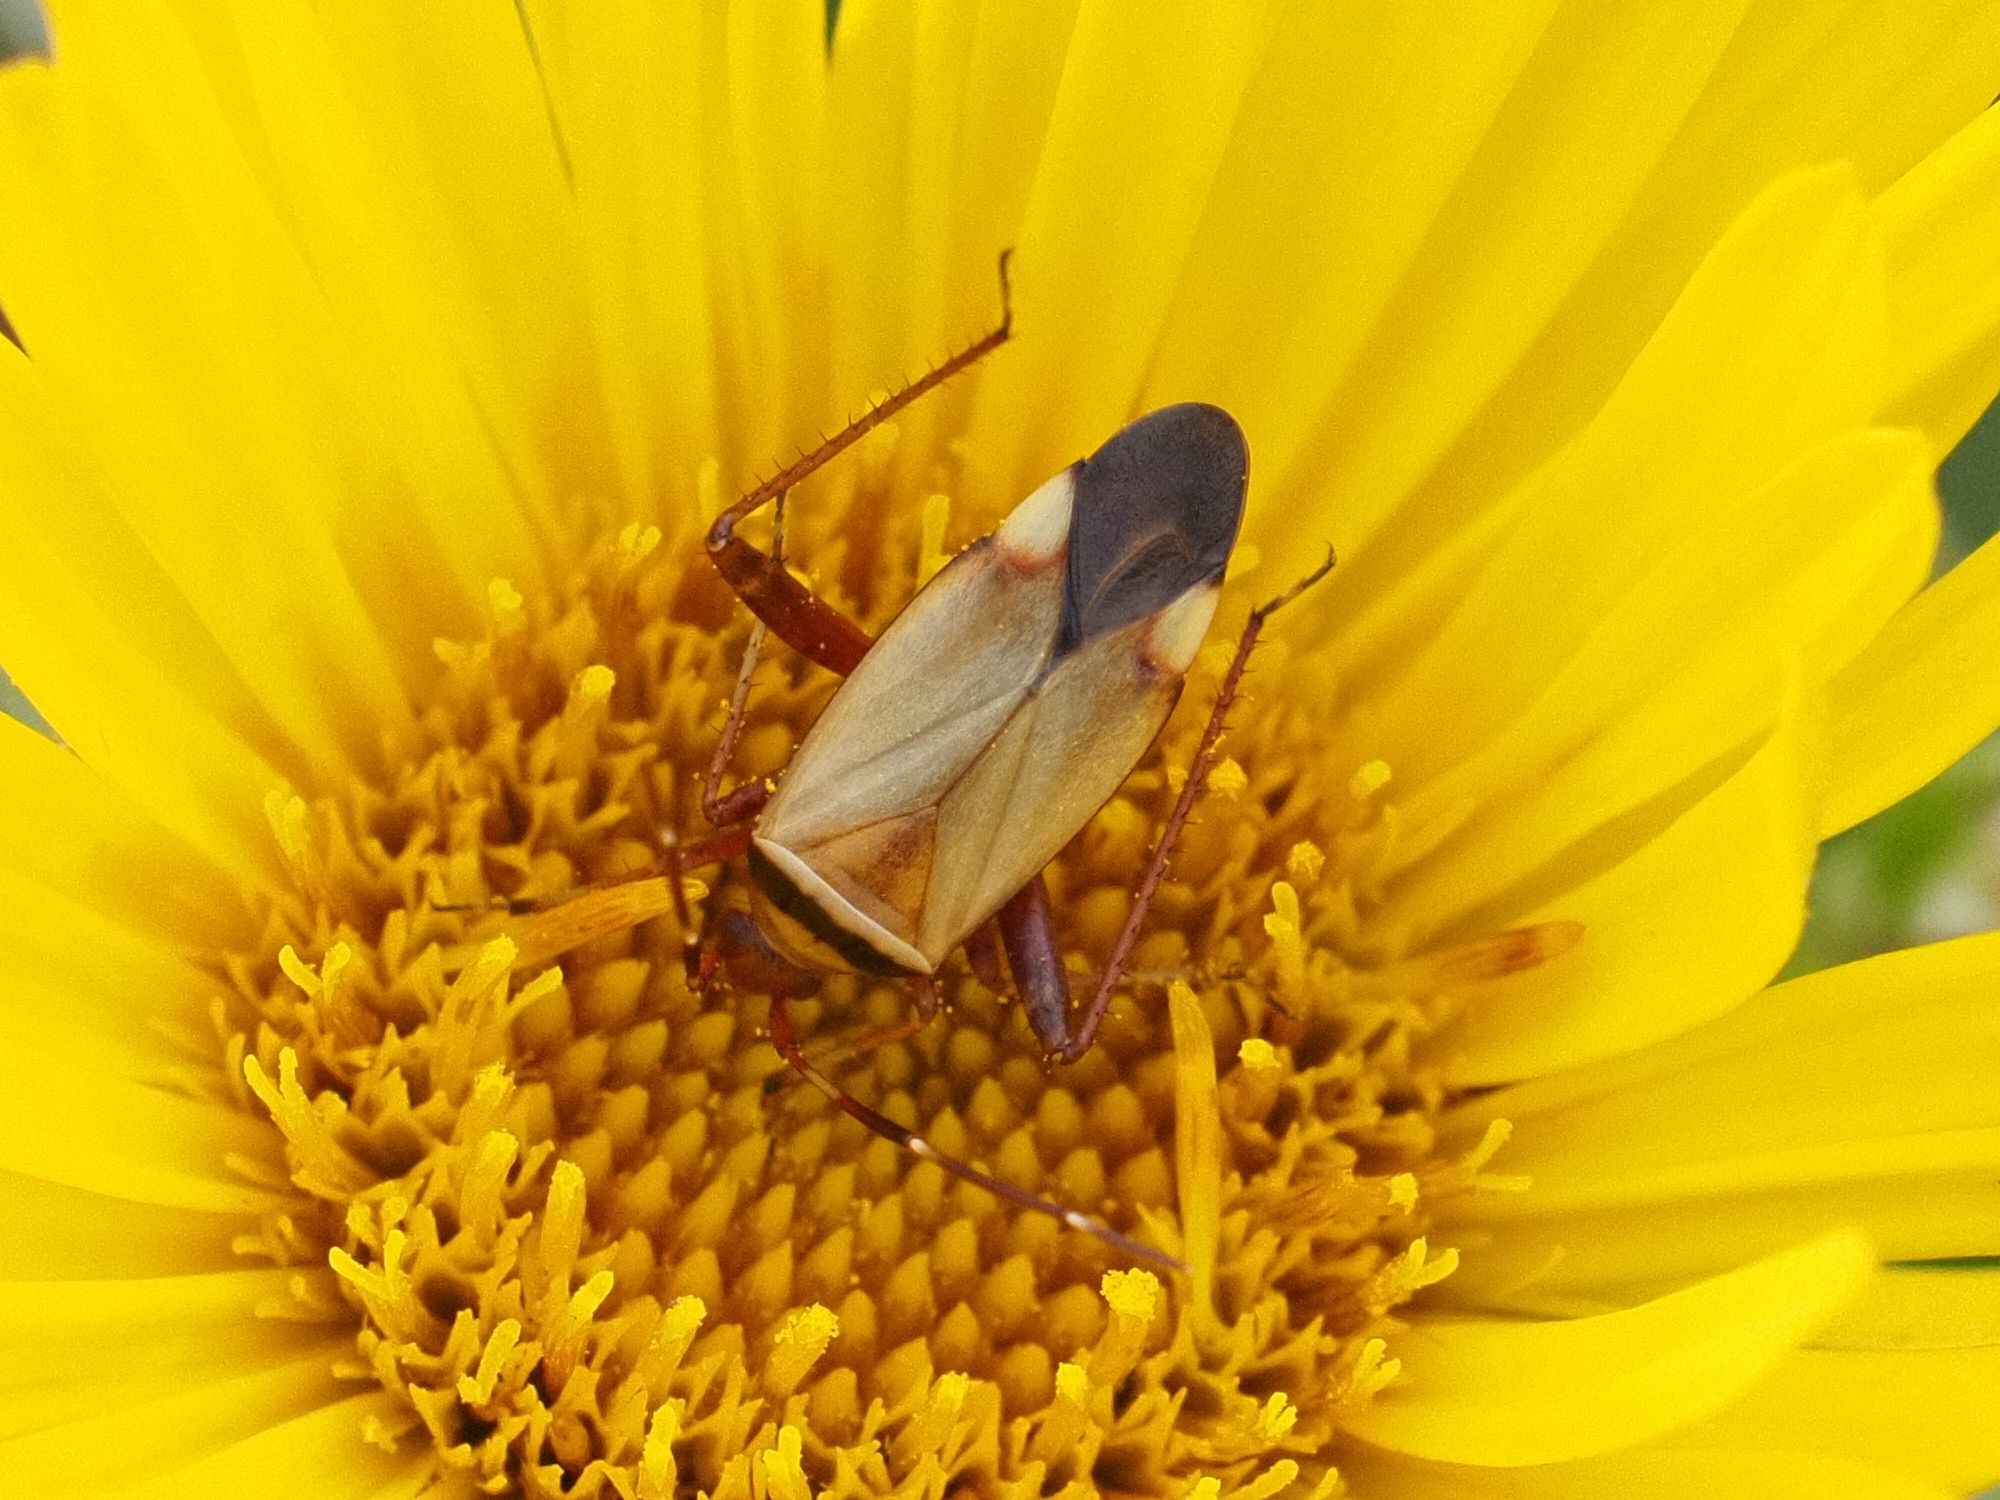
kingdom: Animalia
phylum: Arthropoda
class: Insecta
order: Hemiptera
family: Miridae
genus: Adelphocoris
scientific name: Adelphocoris vandalicus
